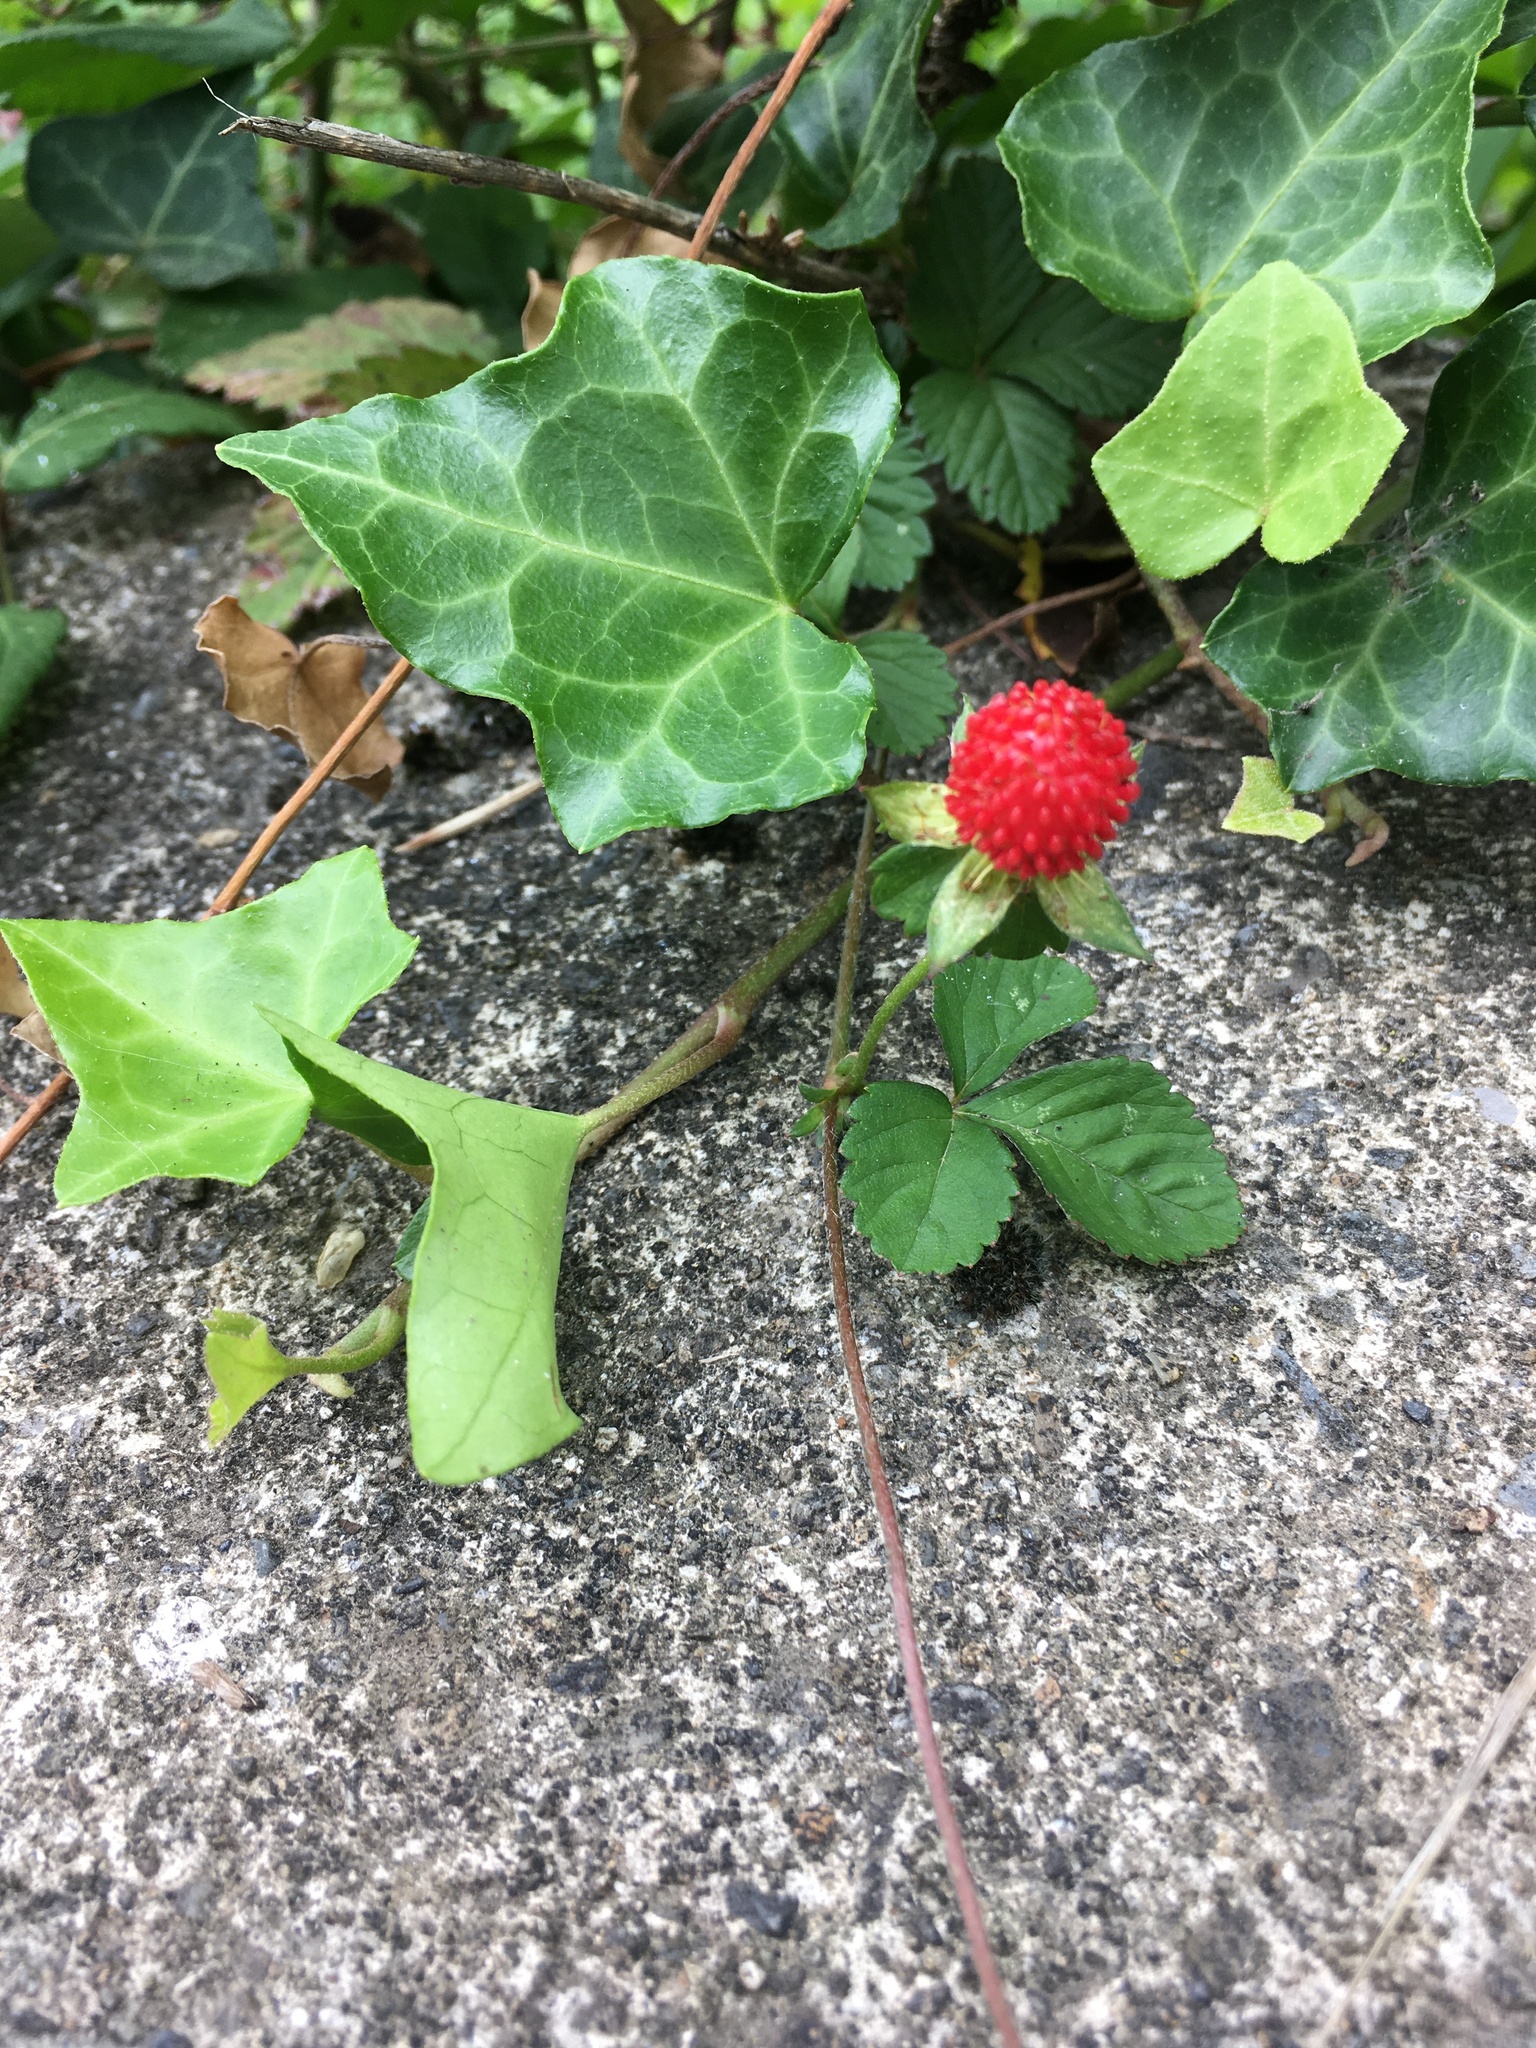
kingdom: Plantae
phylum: Tracheophyta
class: Magnoliopsida
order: Rosales
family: Rosaceae
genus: Potentilla
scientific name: Potentilla indica
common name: Yellow-flowered strawberry
